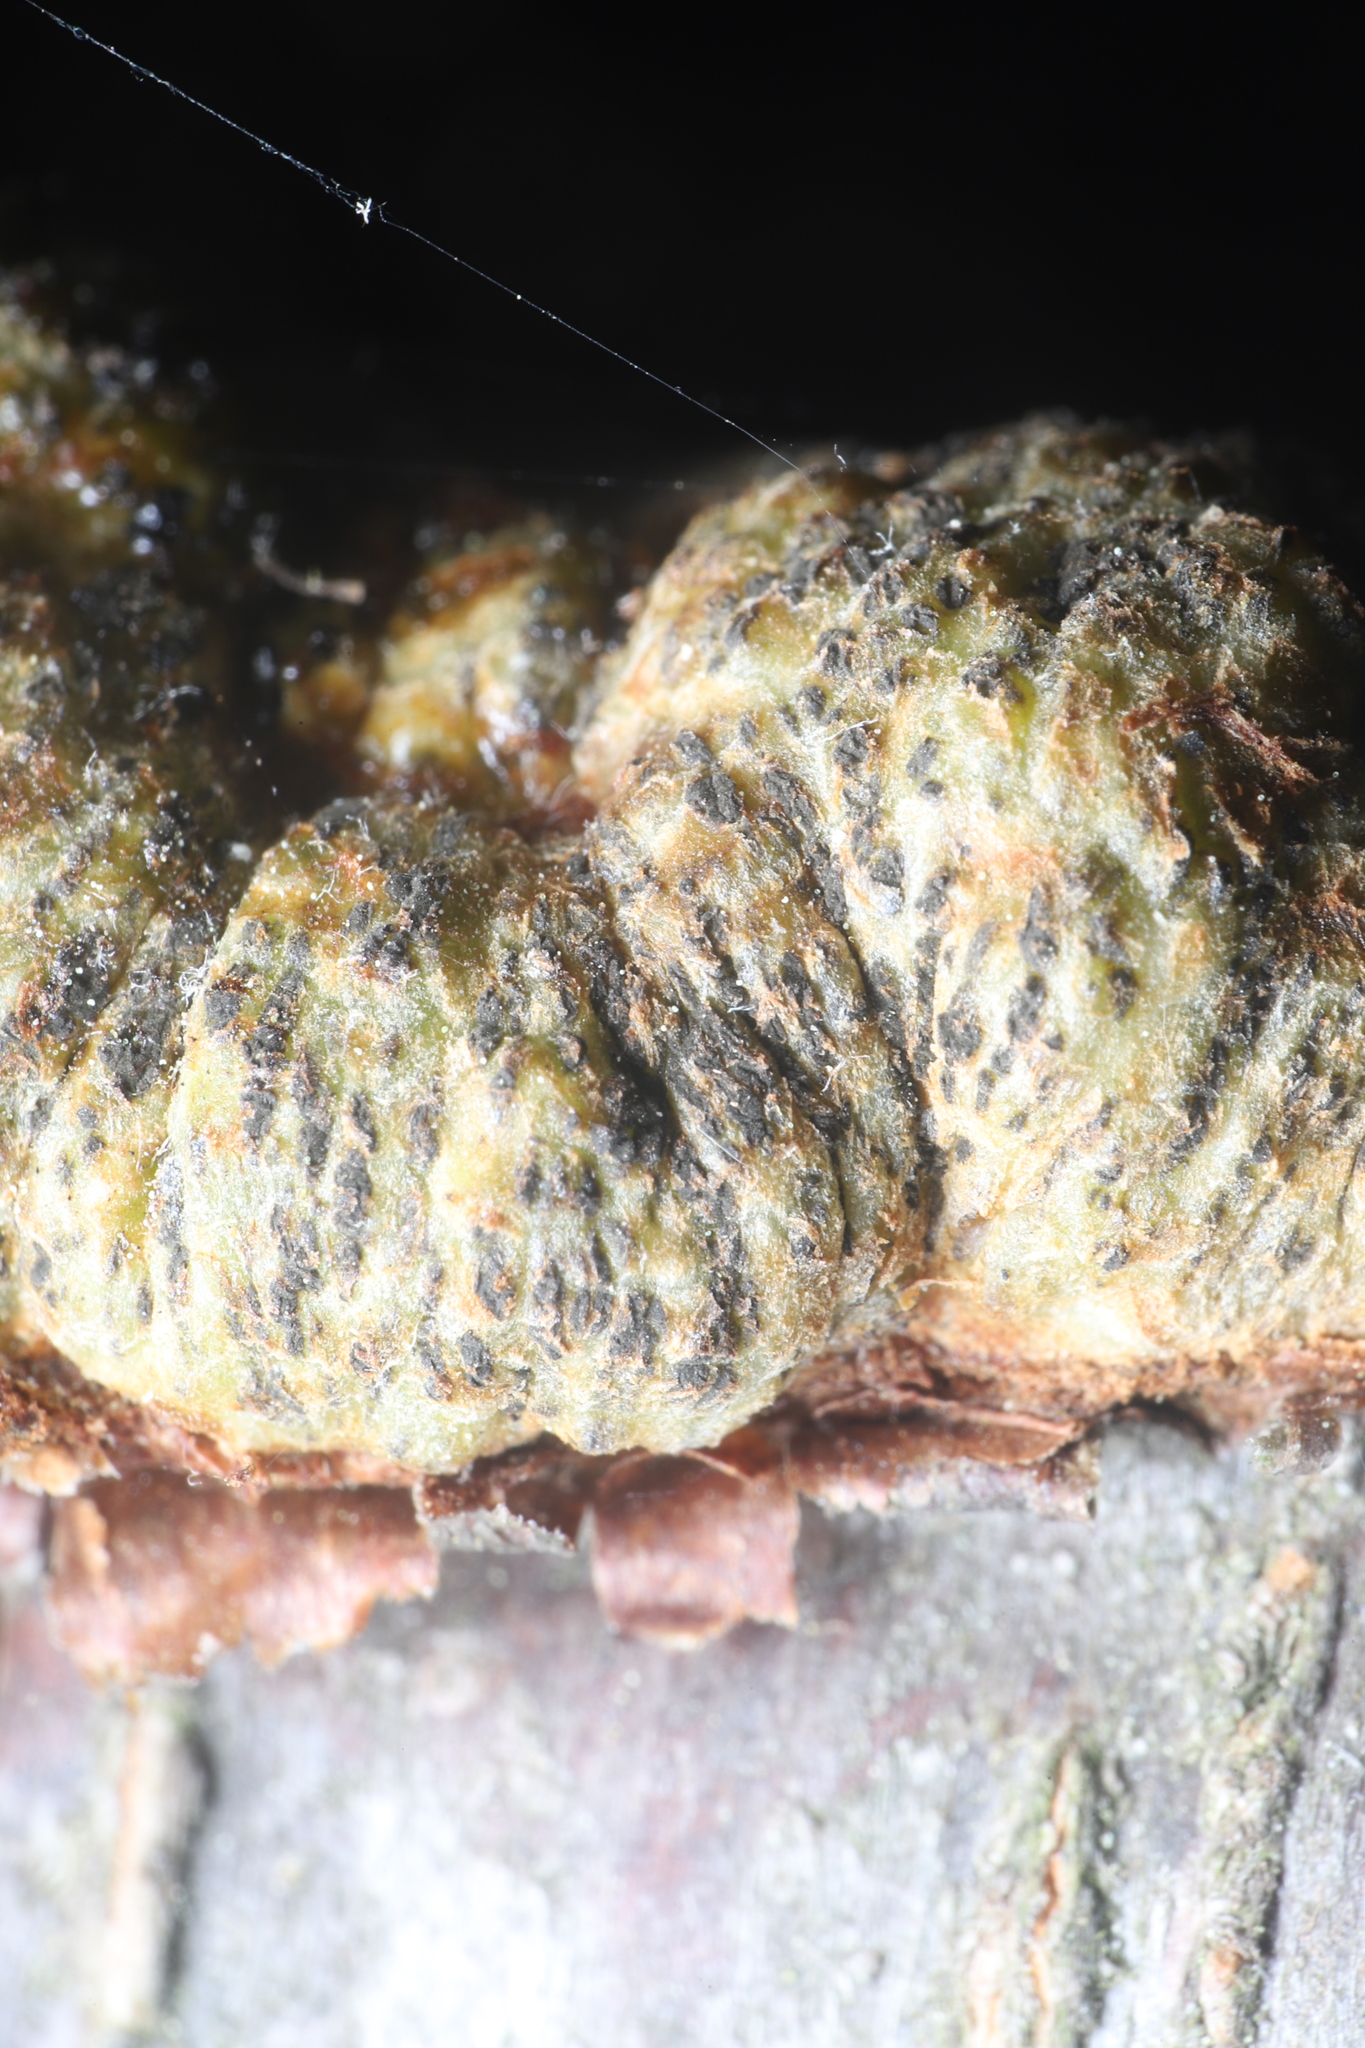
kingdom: Fungi
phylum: Ascomycota
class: Dothideomycetes
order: Venturiales
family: Venturiaceae
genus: Apiosporina
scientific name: Apiosporina morbosa
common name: Black knot
